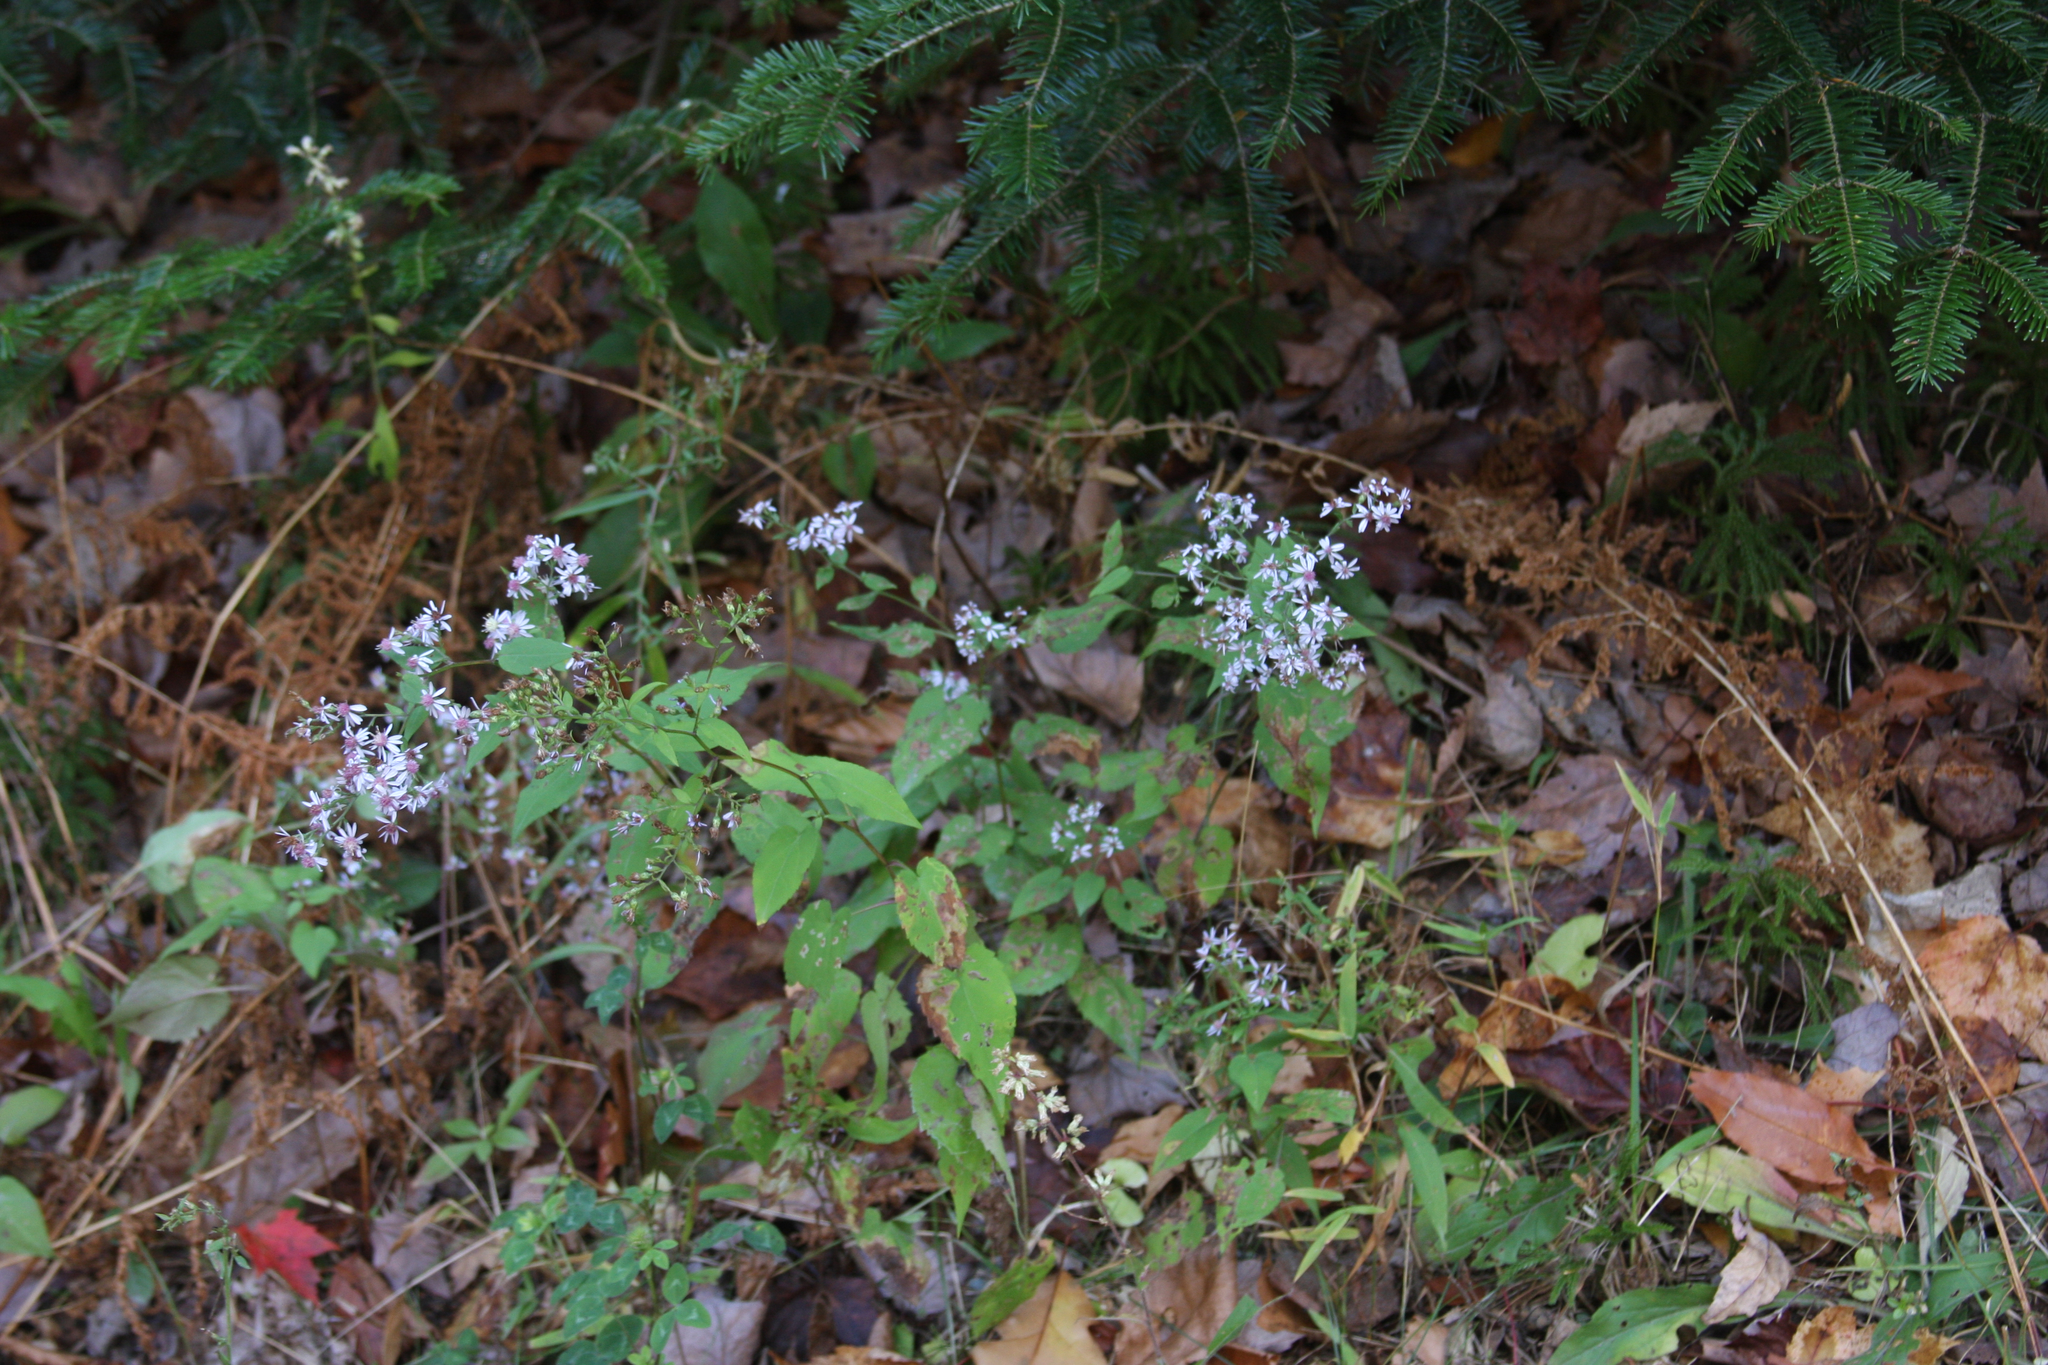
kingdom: Plantae
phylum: Tracheophyta
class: Pinopsida
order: Pinales
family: Pinaceae
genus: Abies
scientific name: Abies balsamea
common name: Balsam fir
